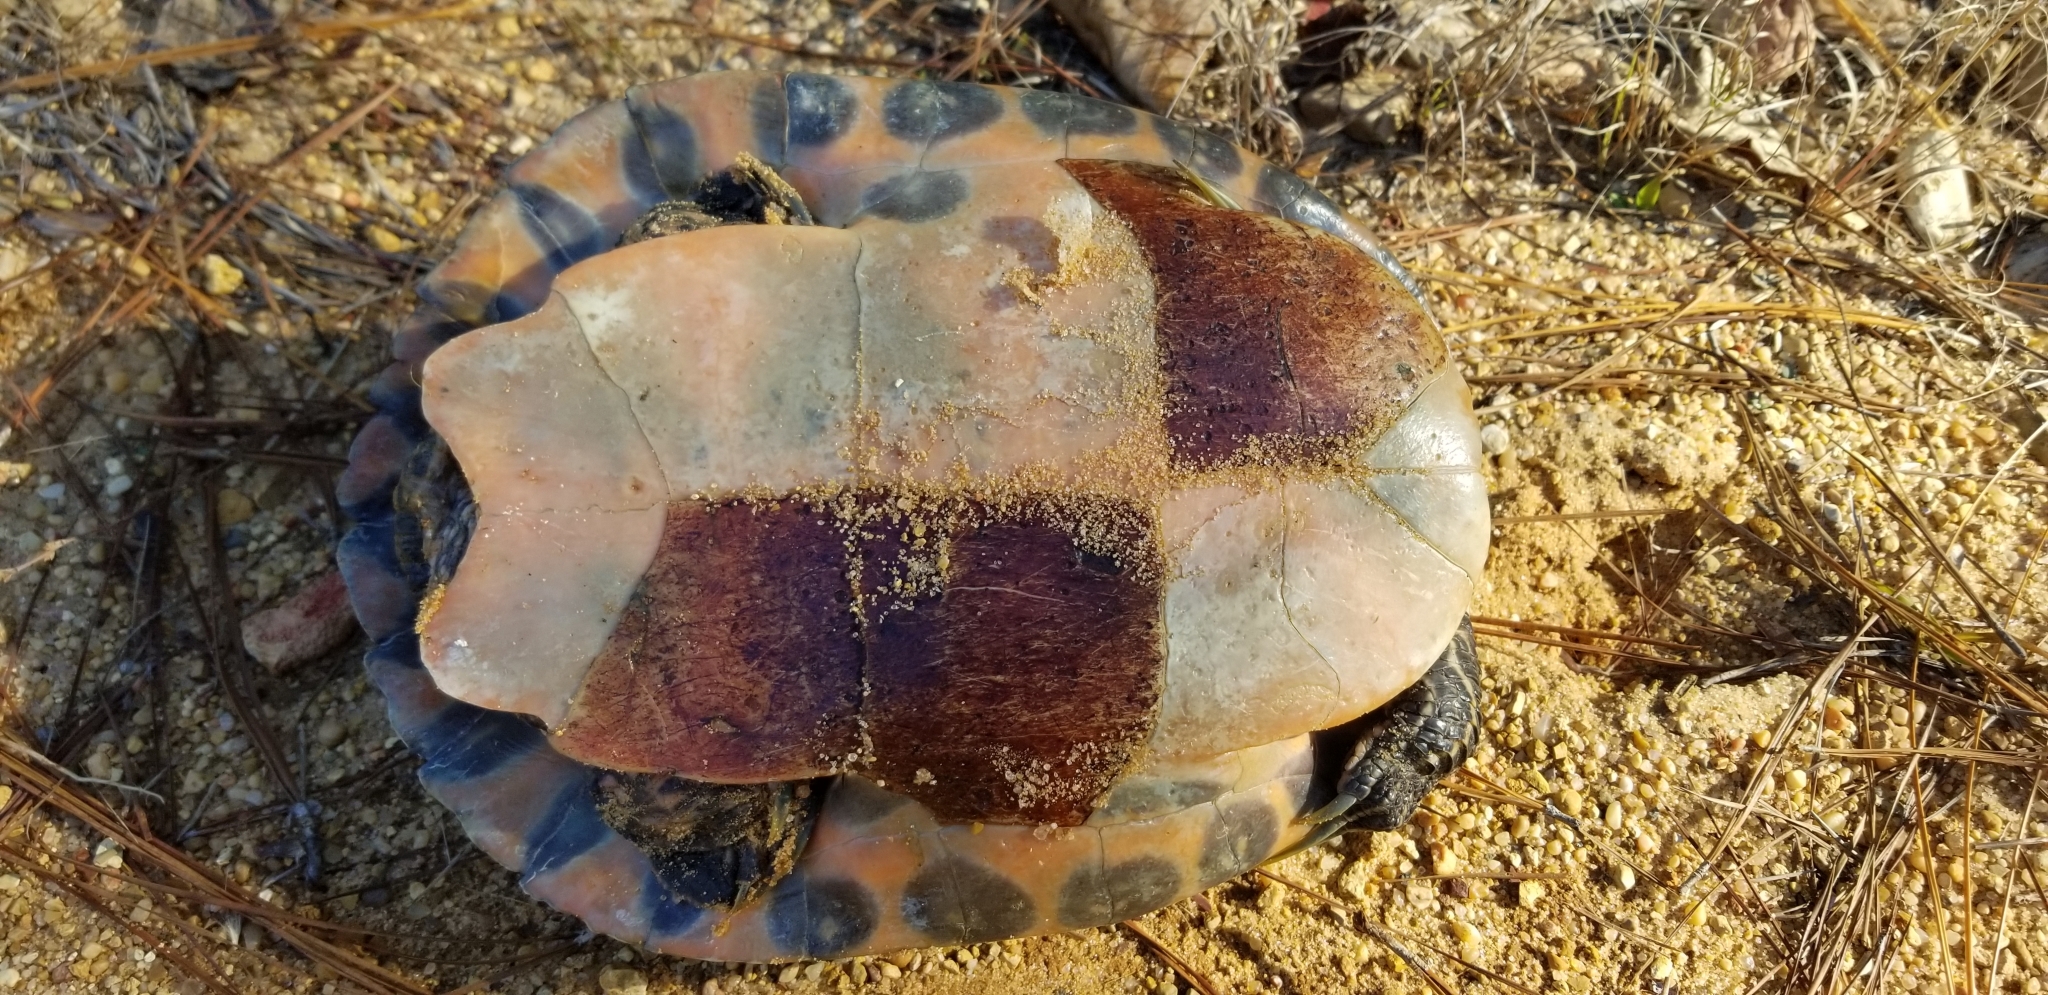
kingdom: Animalia
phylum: Chordata
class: Testudines
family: Emydidae
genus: Pseudemys
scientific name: Pseudemys concinna
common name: Eastern river cooter
